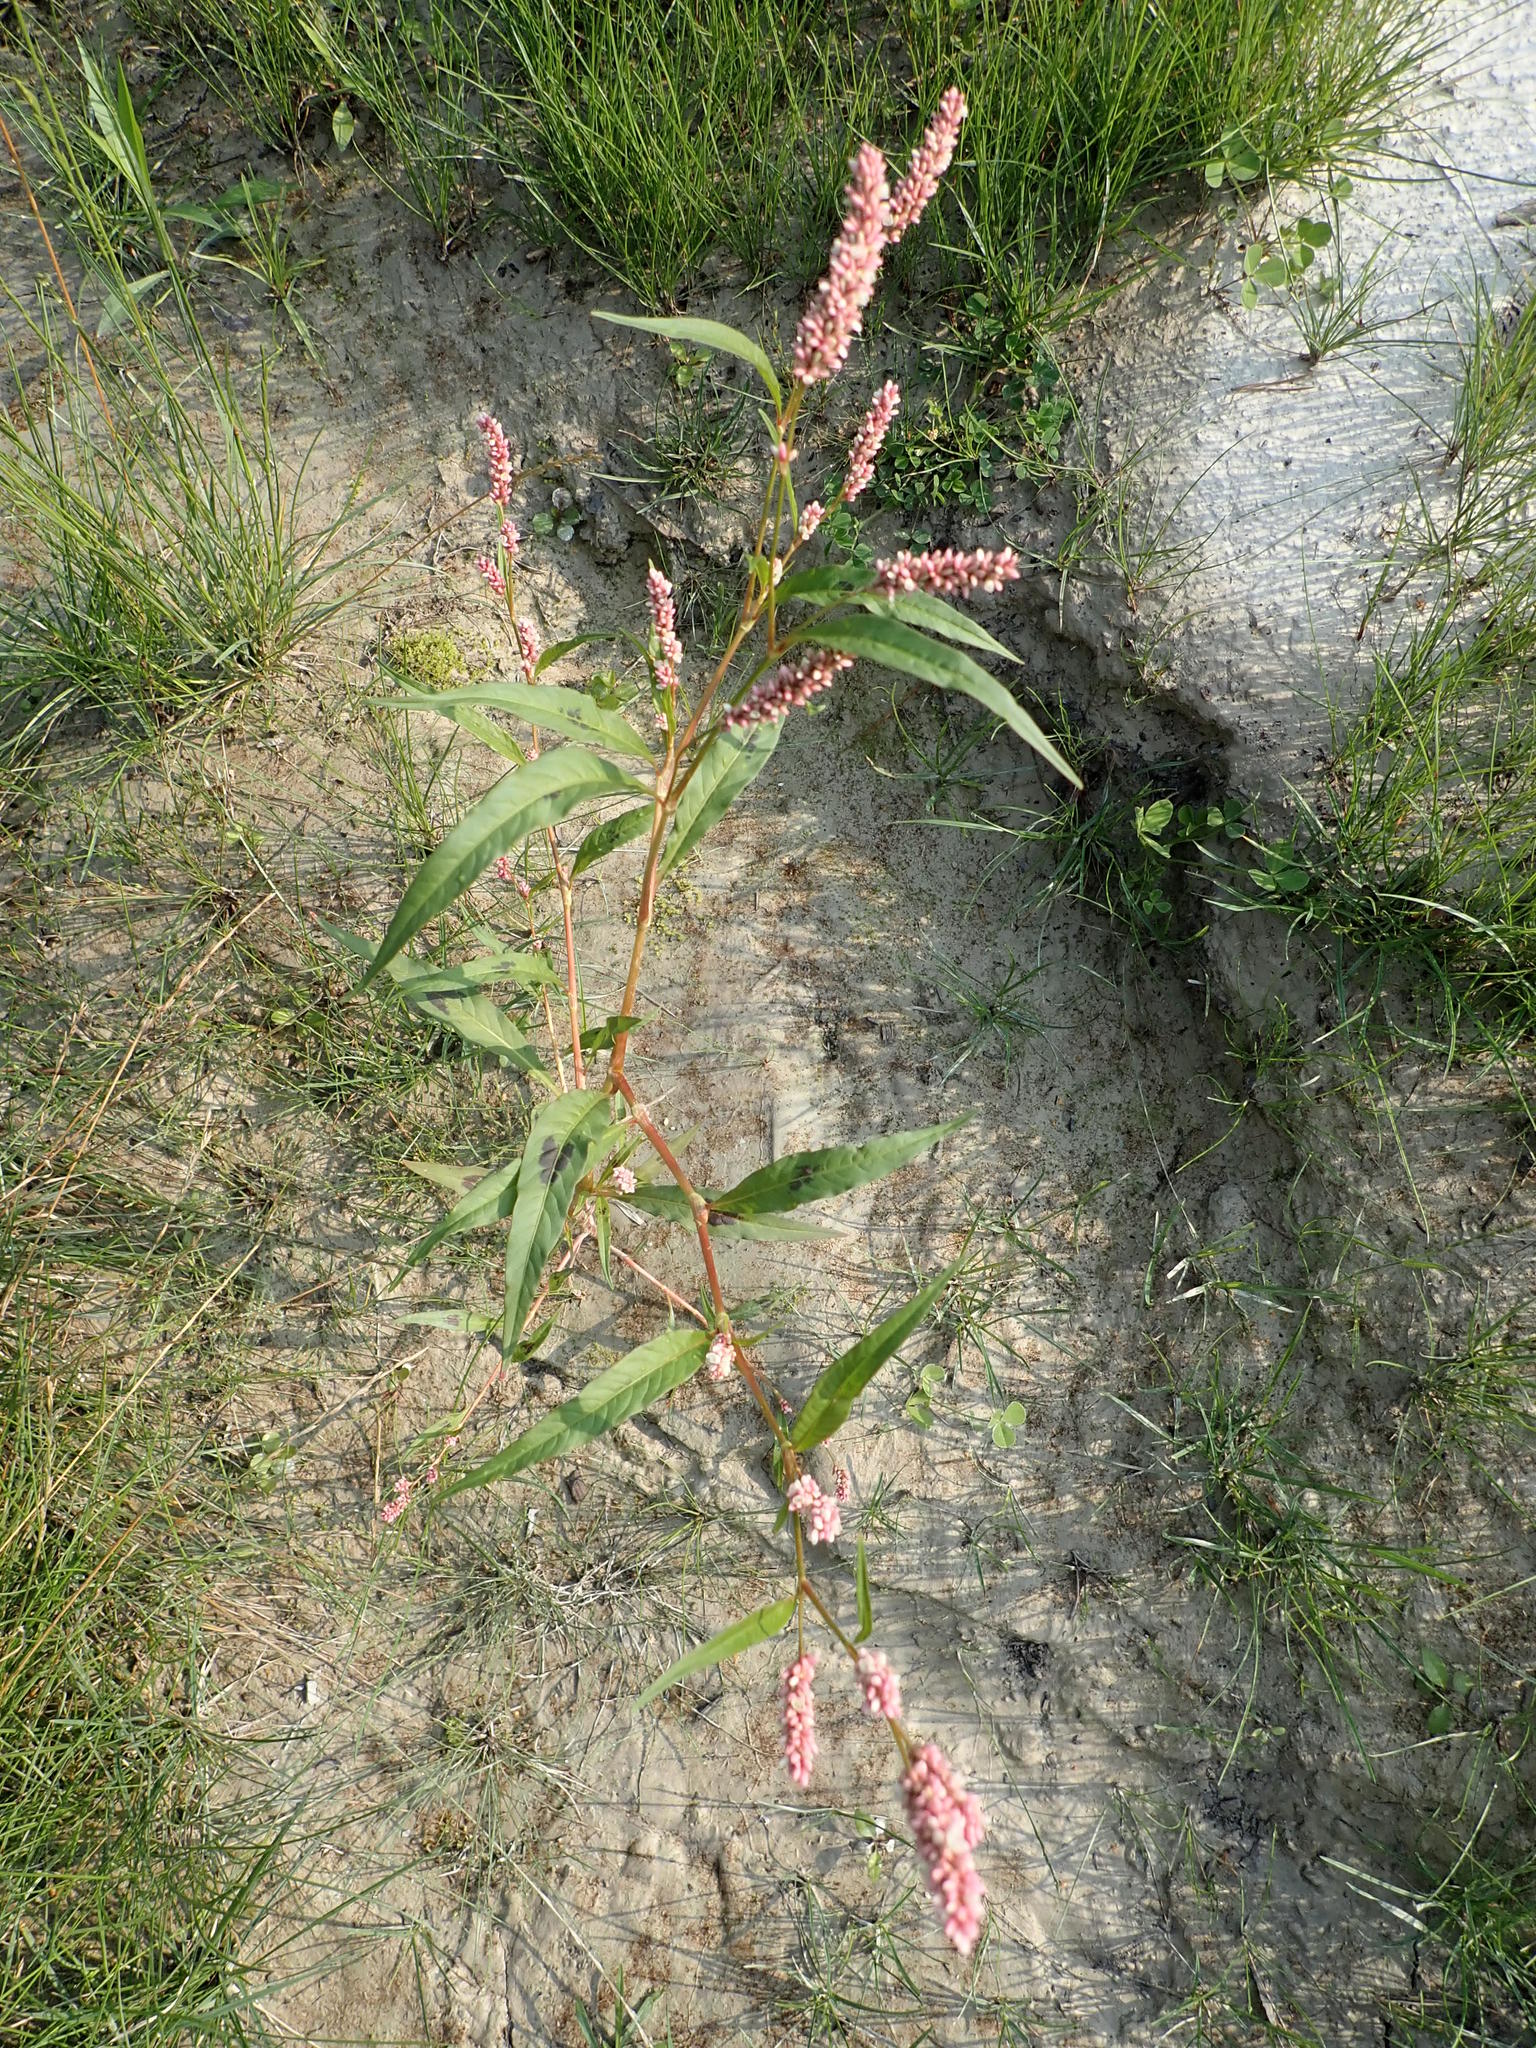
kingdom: Plantae
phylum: Tracheophyta
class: Magnoliopsida
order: Caryophyllales
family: Polygonaceae
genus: Persicaria
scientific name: Persicaria maculosa
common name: Redshank
